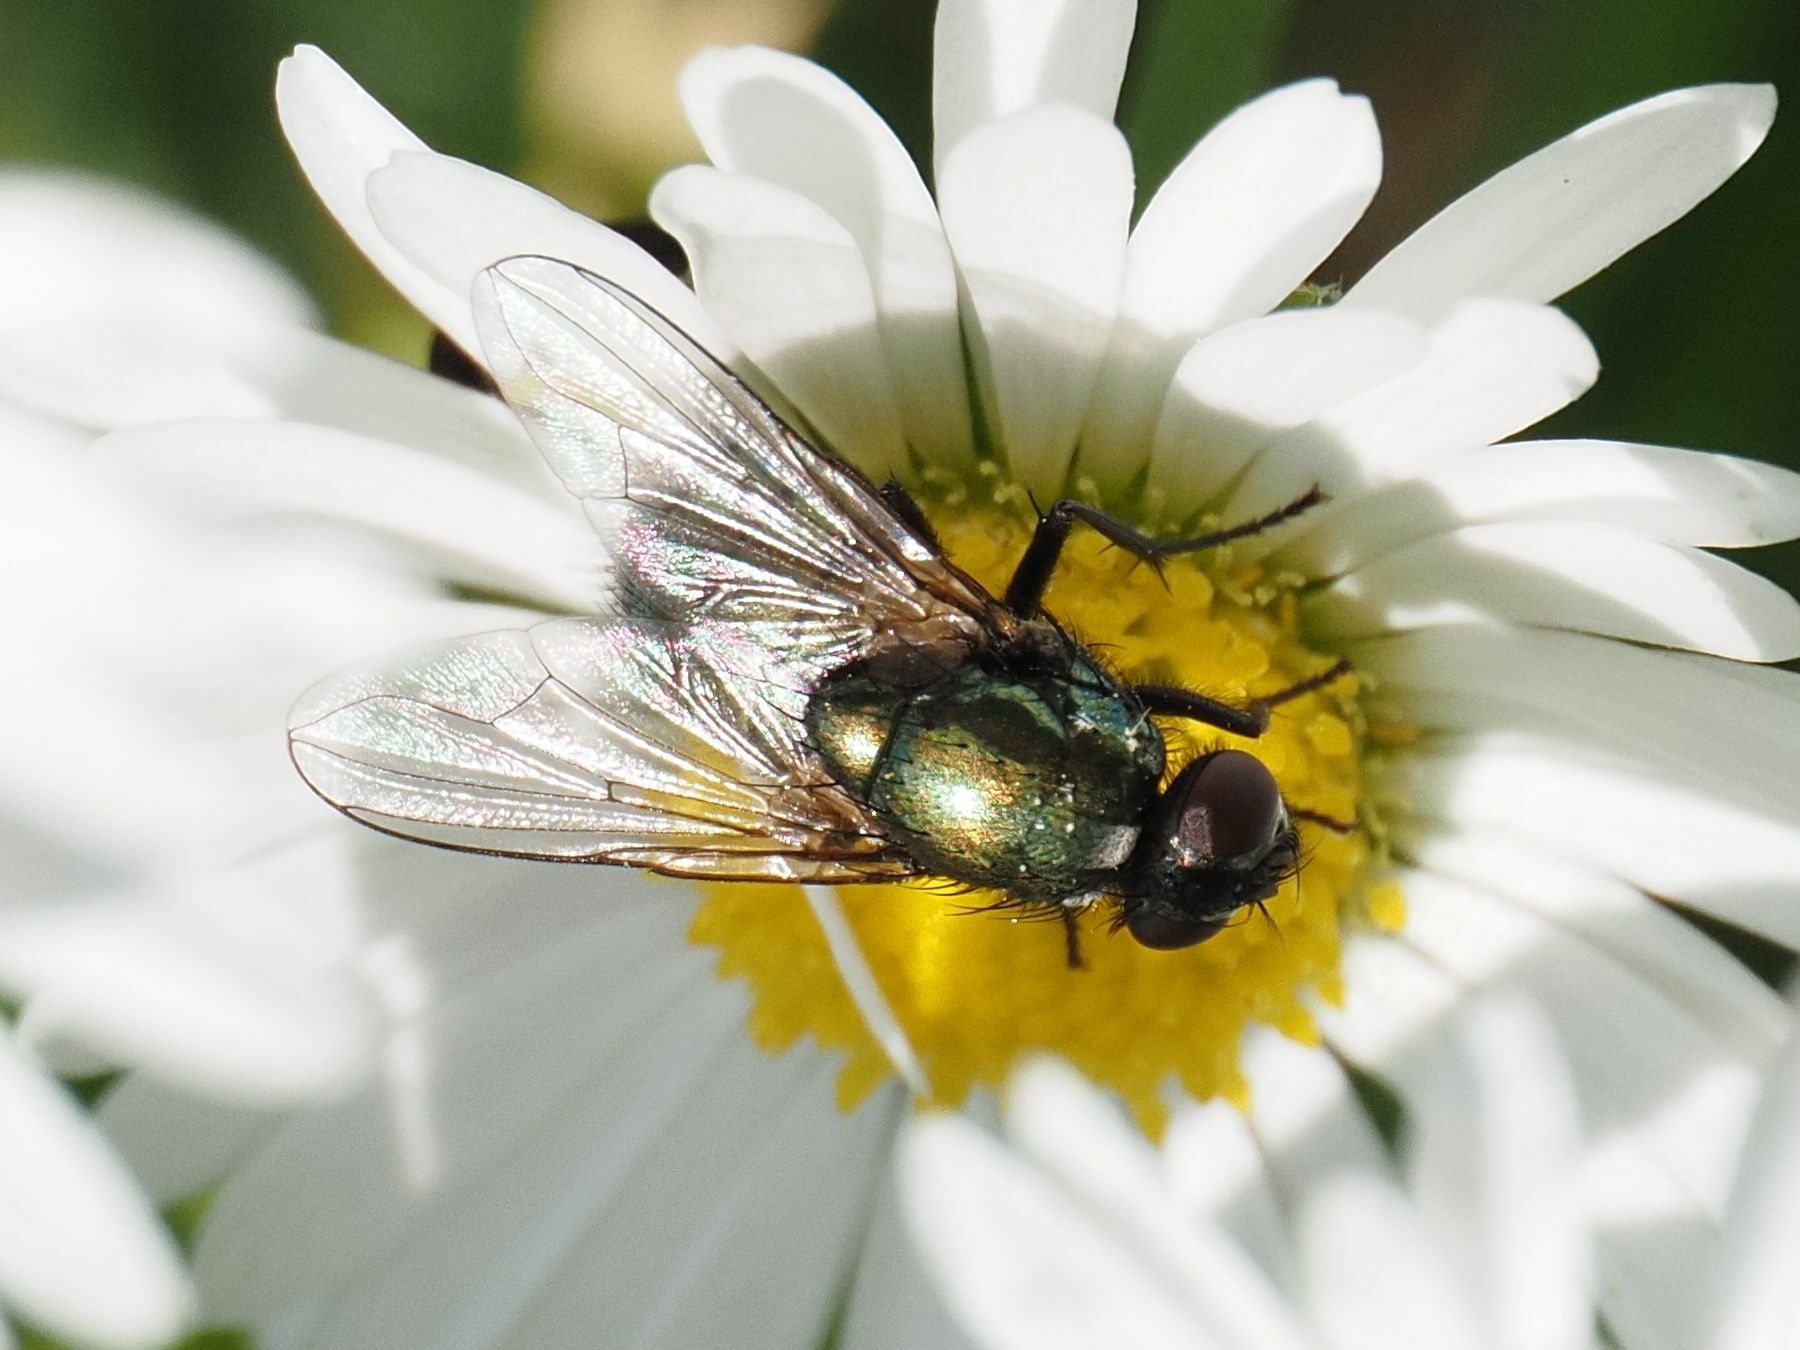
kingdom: Animalia
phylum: Arthropoda
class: Insecta
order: Diptera
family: Muscidae
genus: Pyrellia
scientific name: Pyrellia rapax
